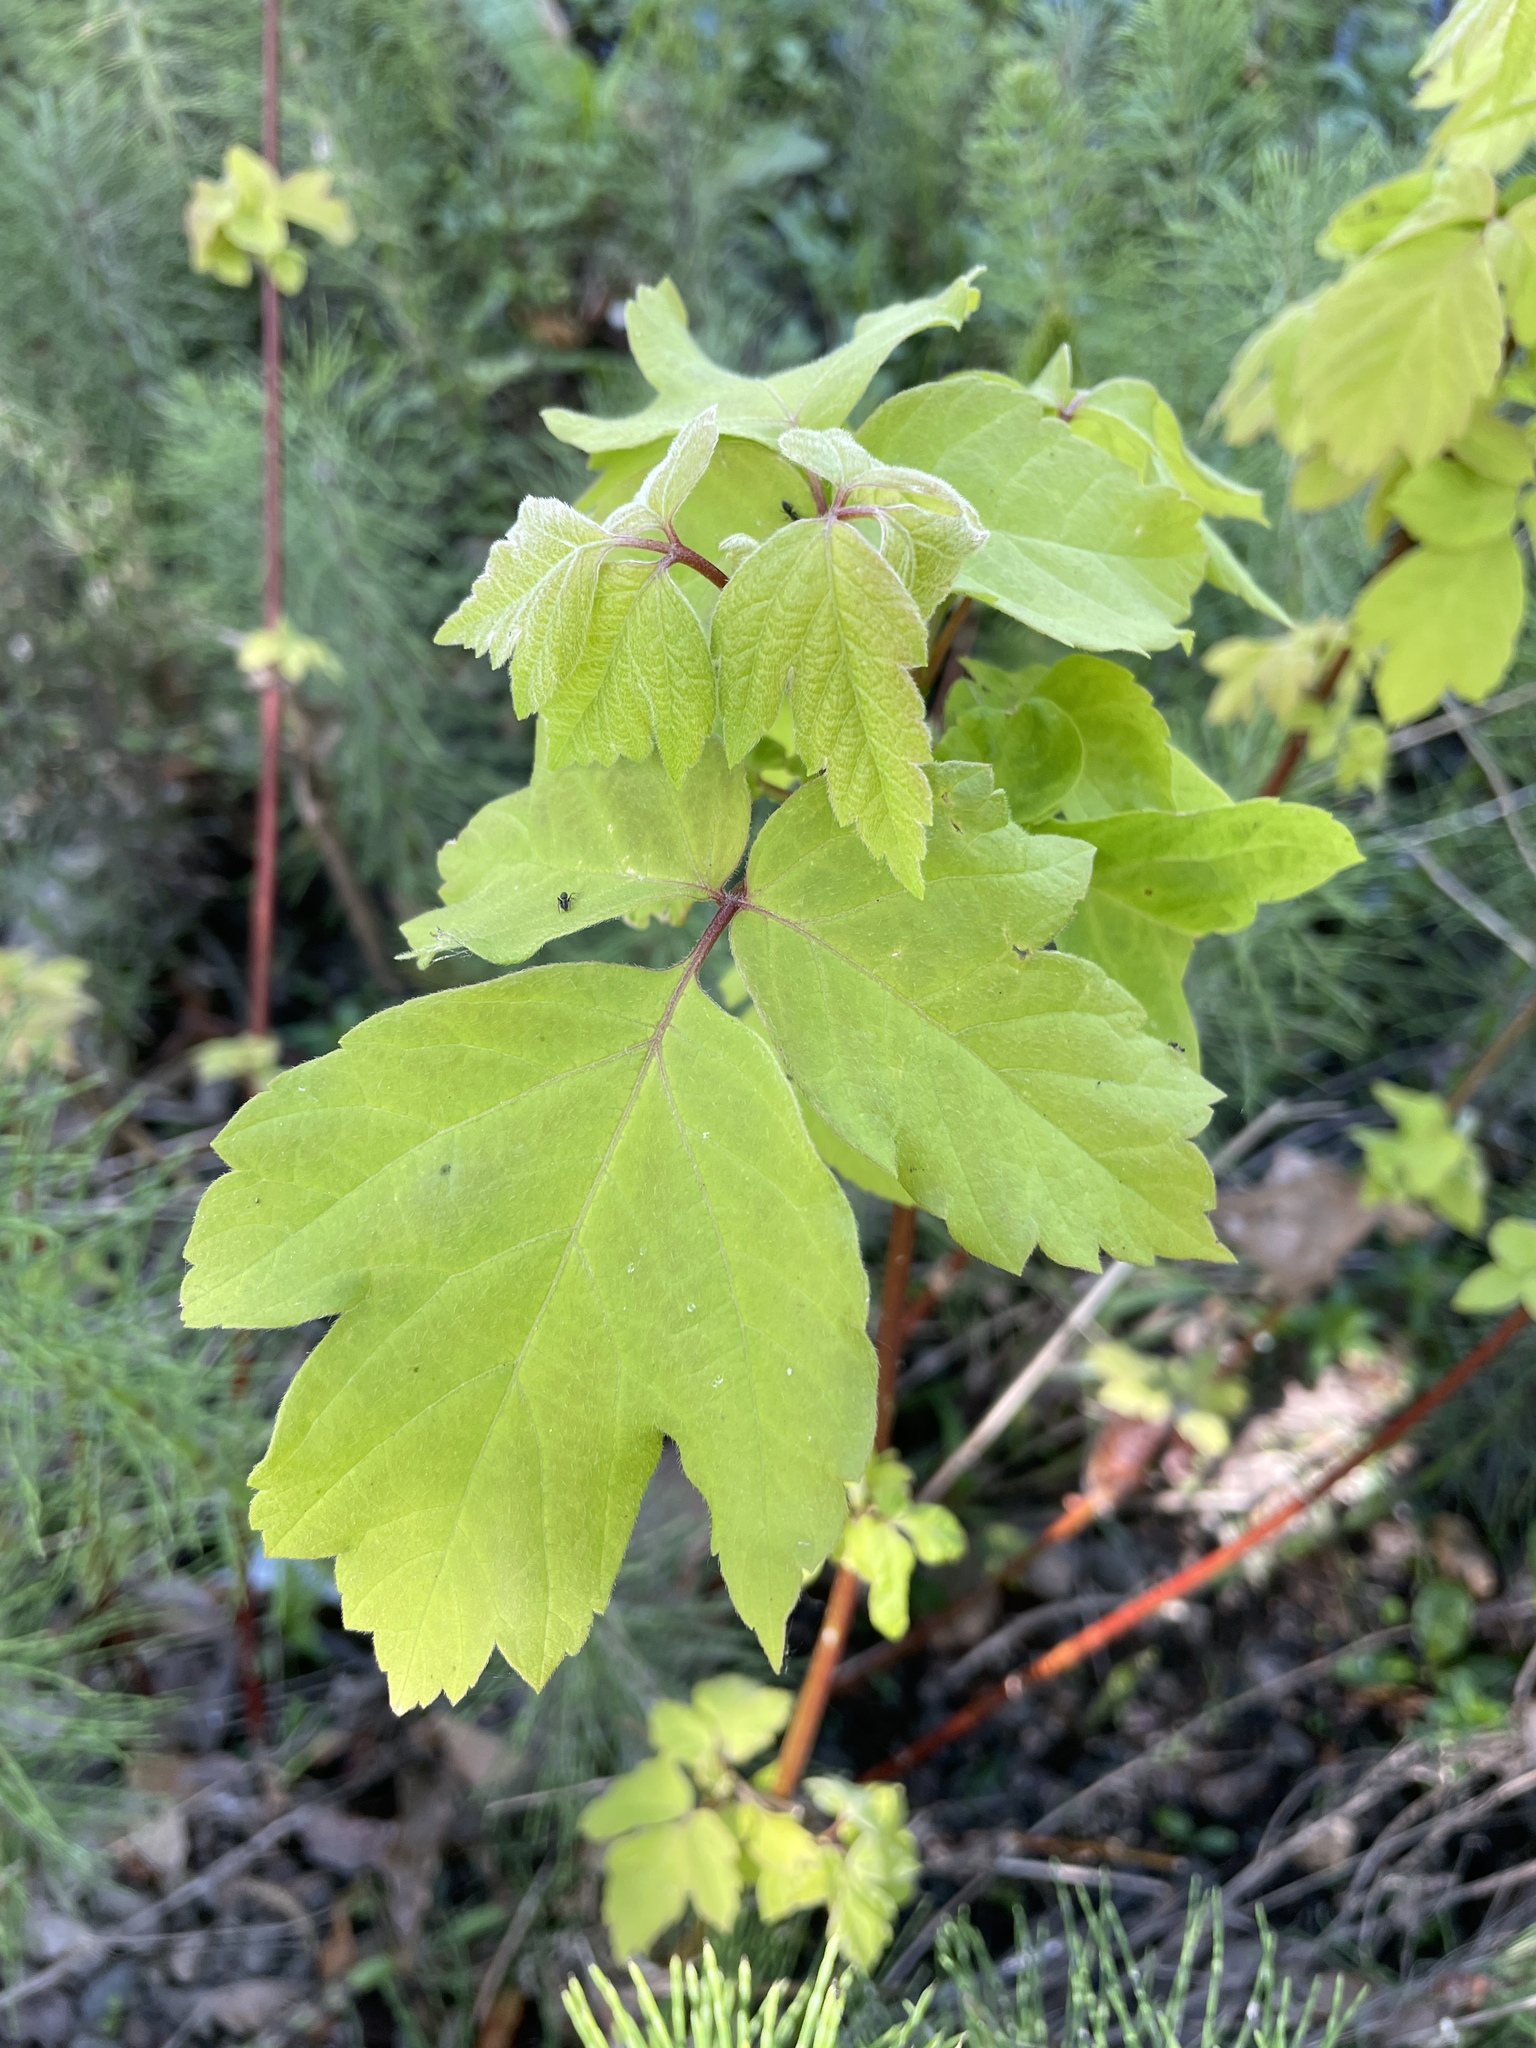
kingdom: Plantae
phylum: Tracheophyta
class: Magnoliopsida
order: Sapindales
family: Sapindaceae
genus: Acer
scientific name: Acer negundo
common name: Ashleaf maple
